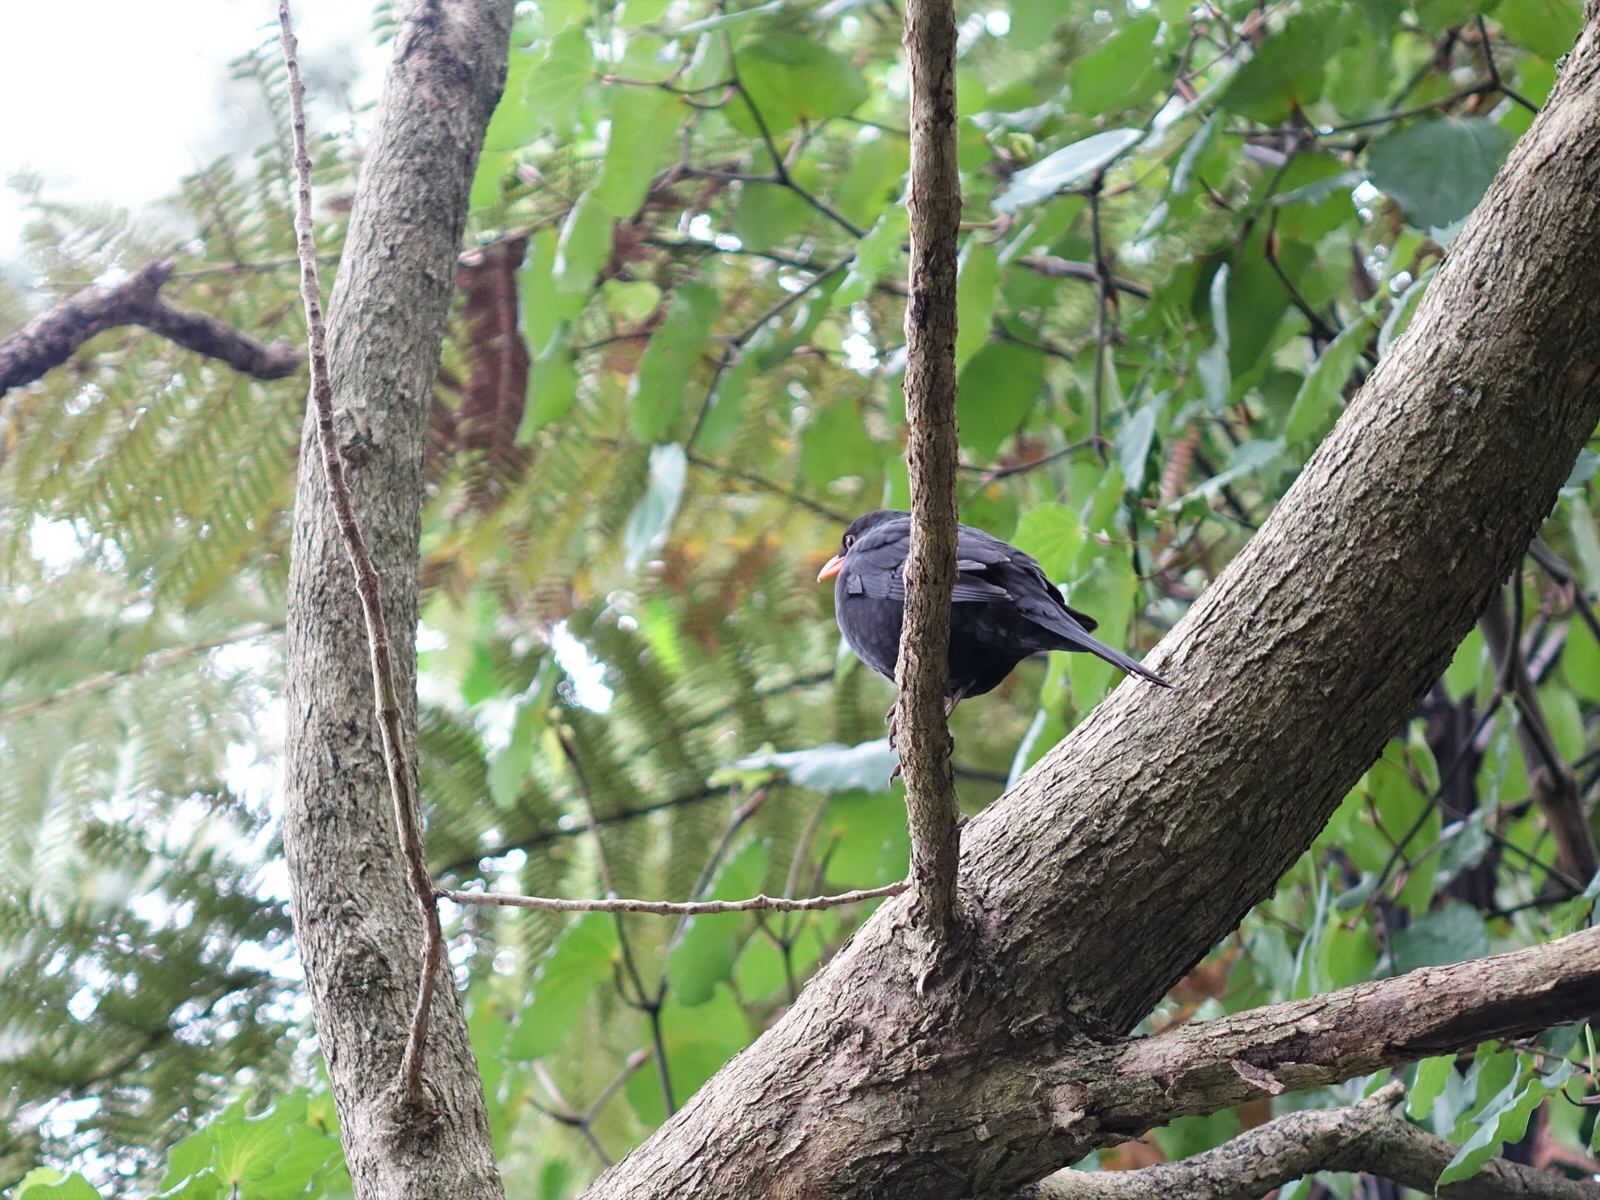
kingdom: Animalia
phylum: Chordata
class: Aves
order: Passeriformes
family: Turdidae
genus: Turdus
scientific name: Turdus merula
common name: Common blackbird
